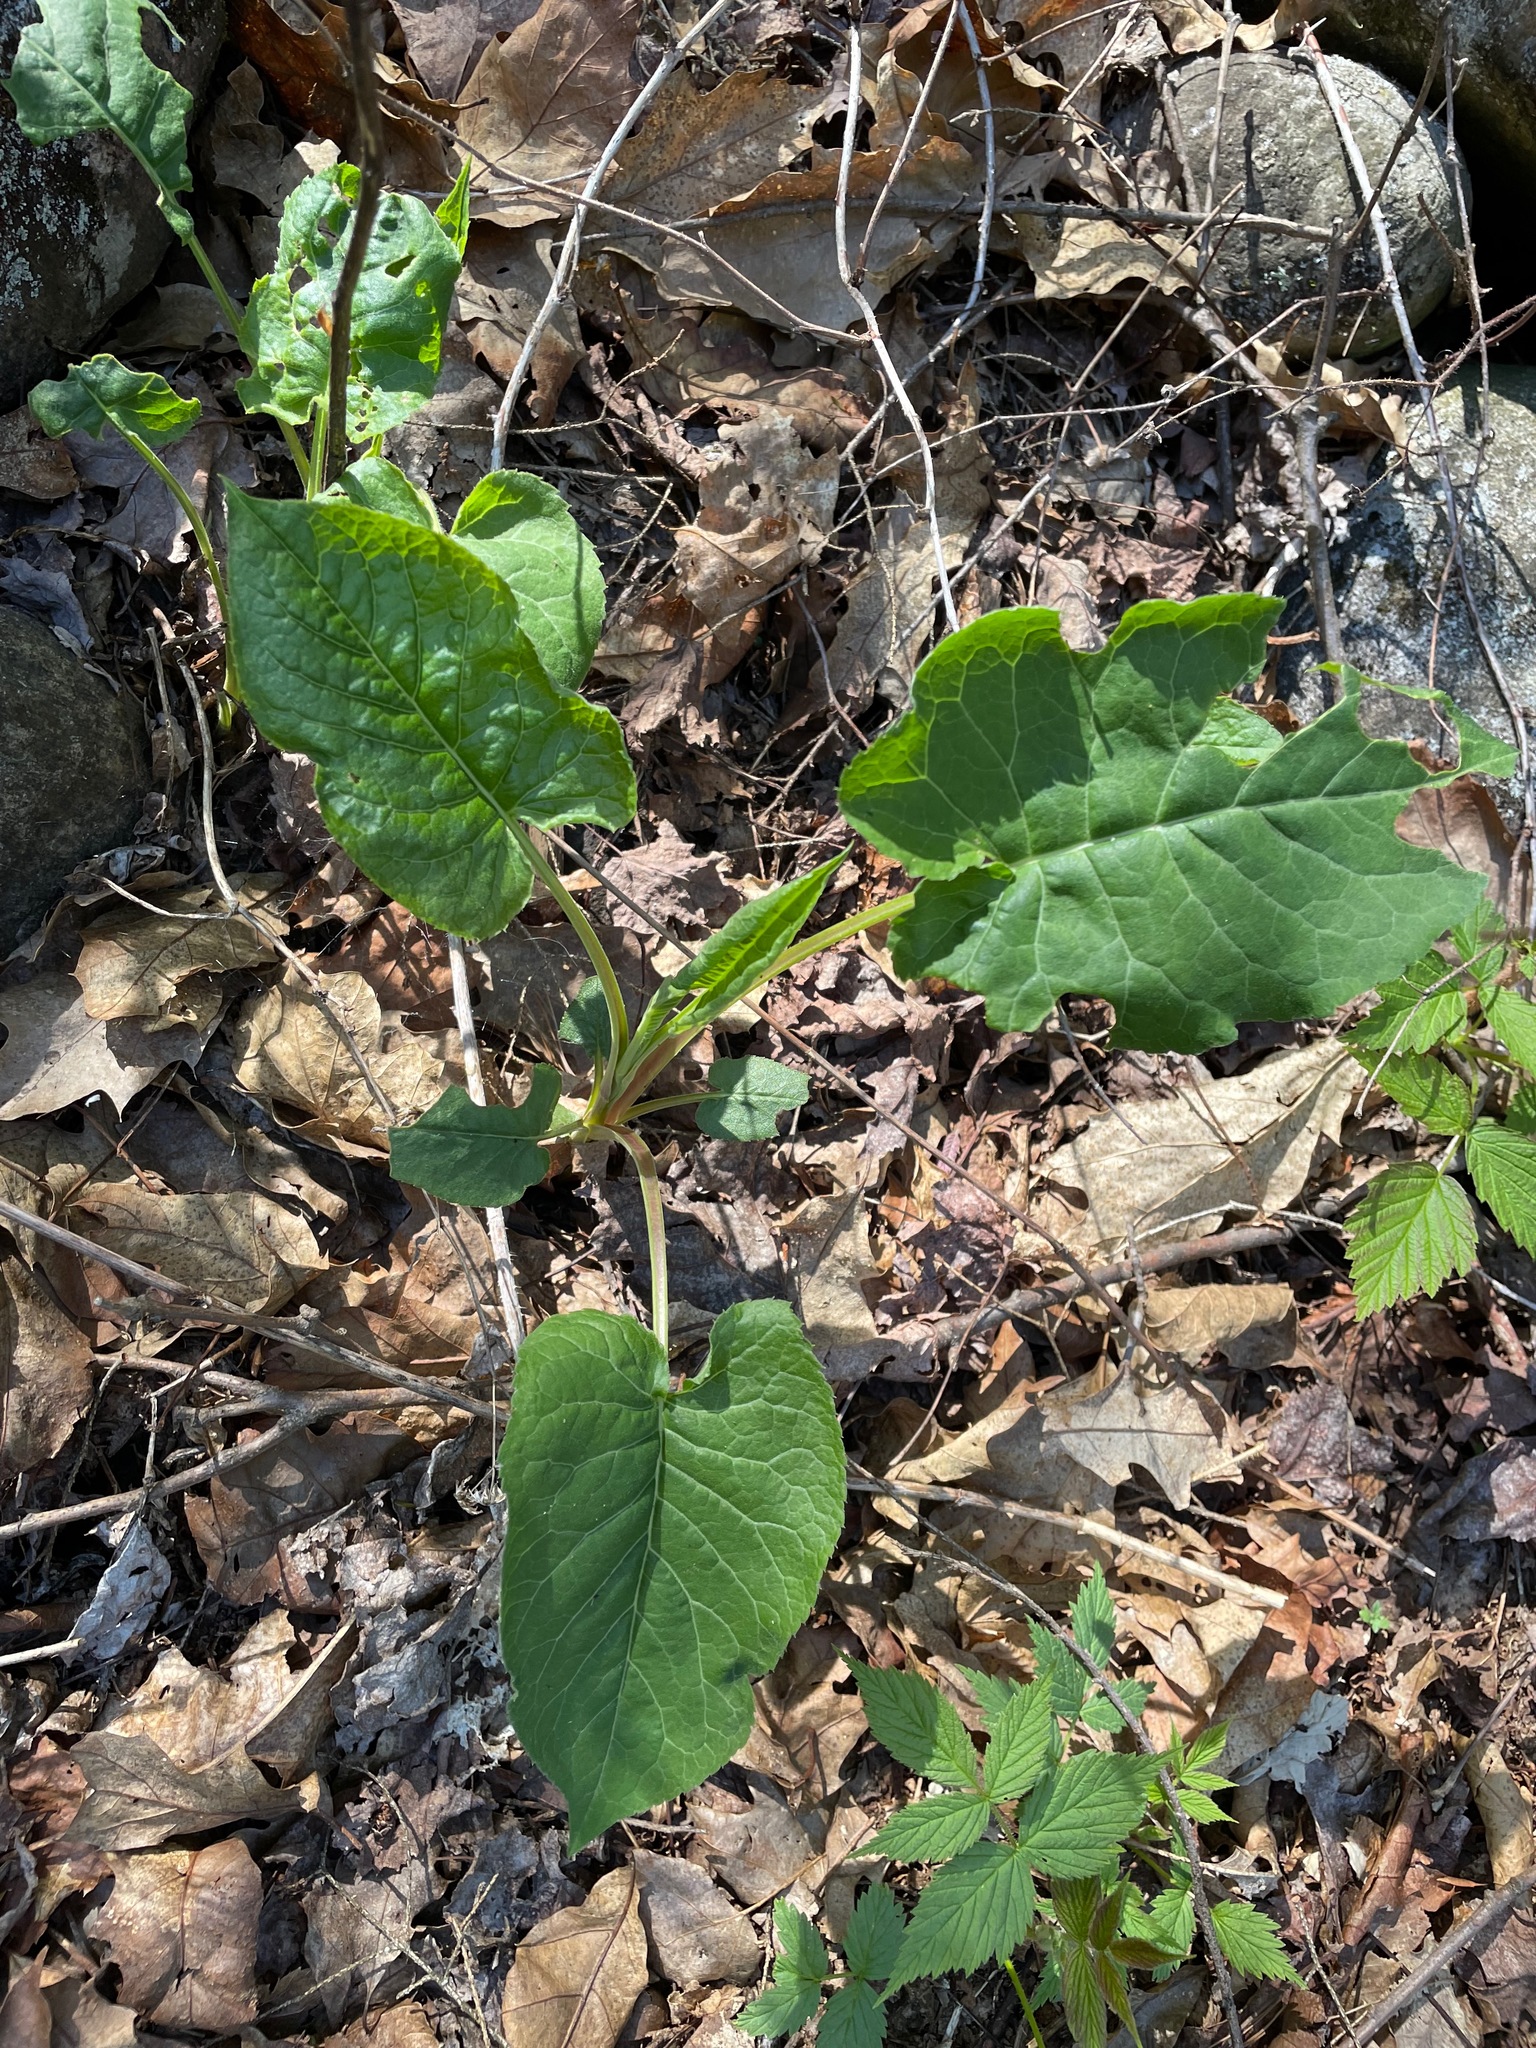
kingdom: Plantae
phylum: Tracheophyta
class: Magnoliopsida
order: Asterales
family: Asteraceae
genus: Eurybia
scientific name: Eurybia macrophylla
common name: Big-leaved aster
